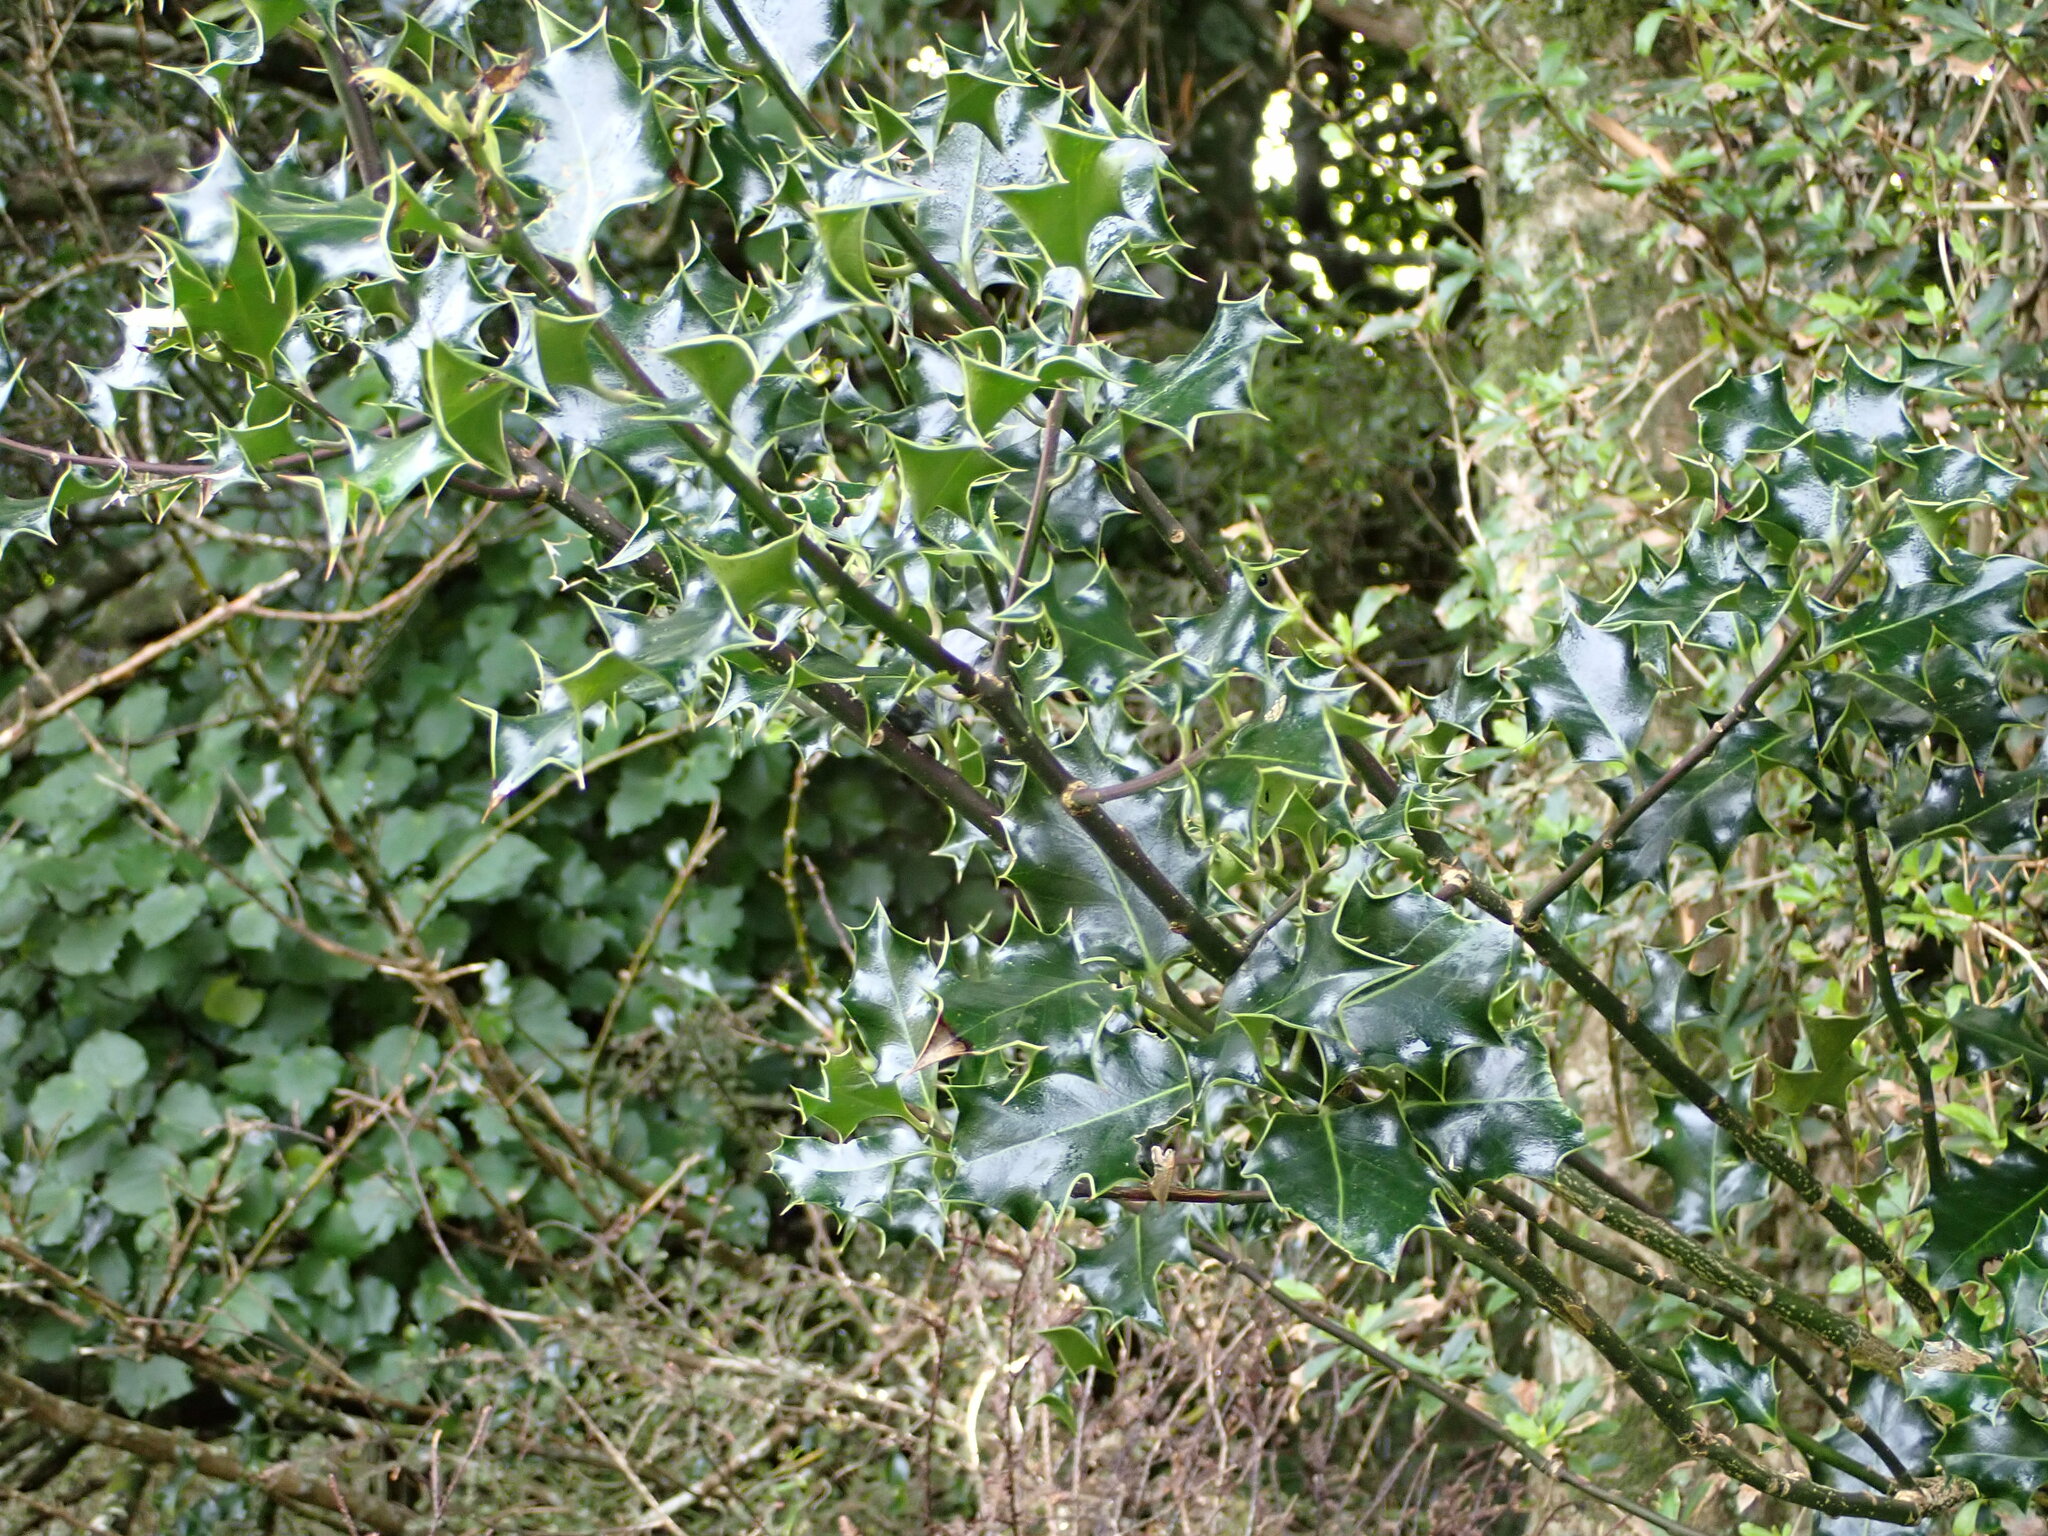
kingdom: Plantae
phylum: Tracheophyta
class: Magnoliopsida
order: Aquifoliales
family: Aquifoliaceae
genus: Ilex
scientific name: Ilex aquifolium
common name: English holly
